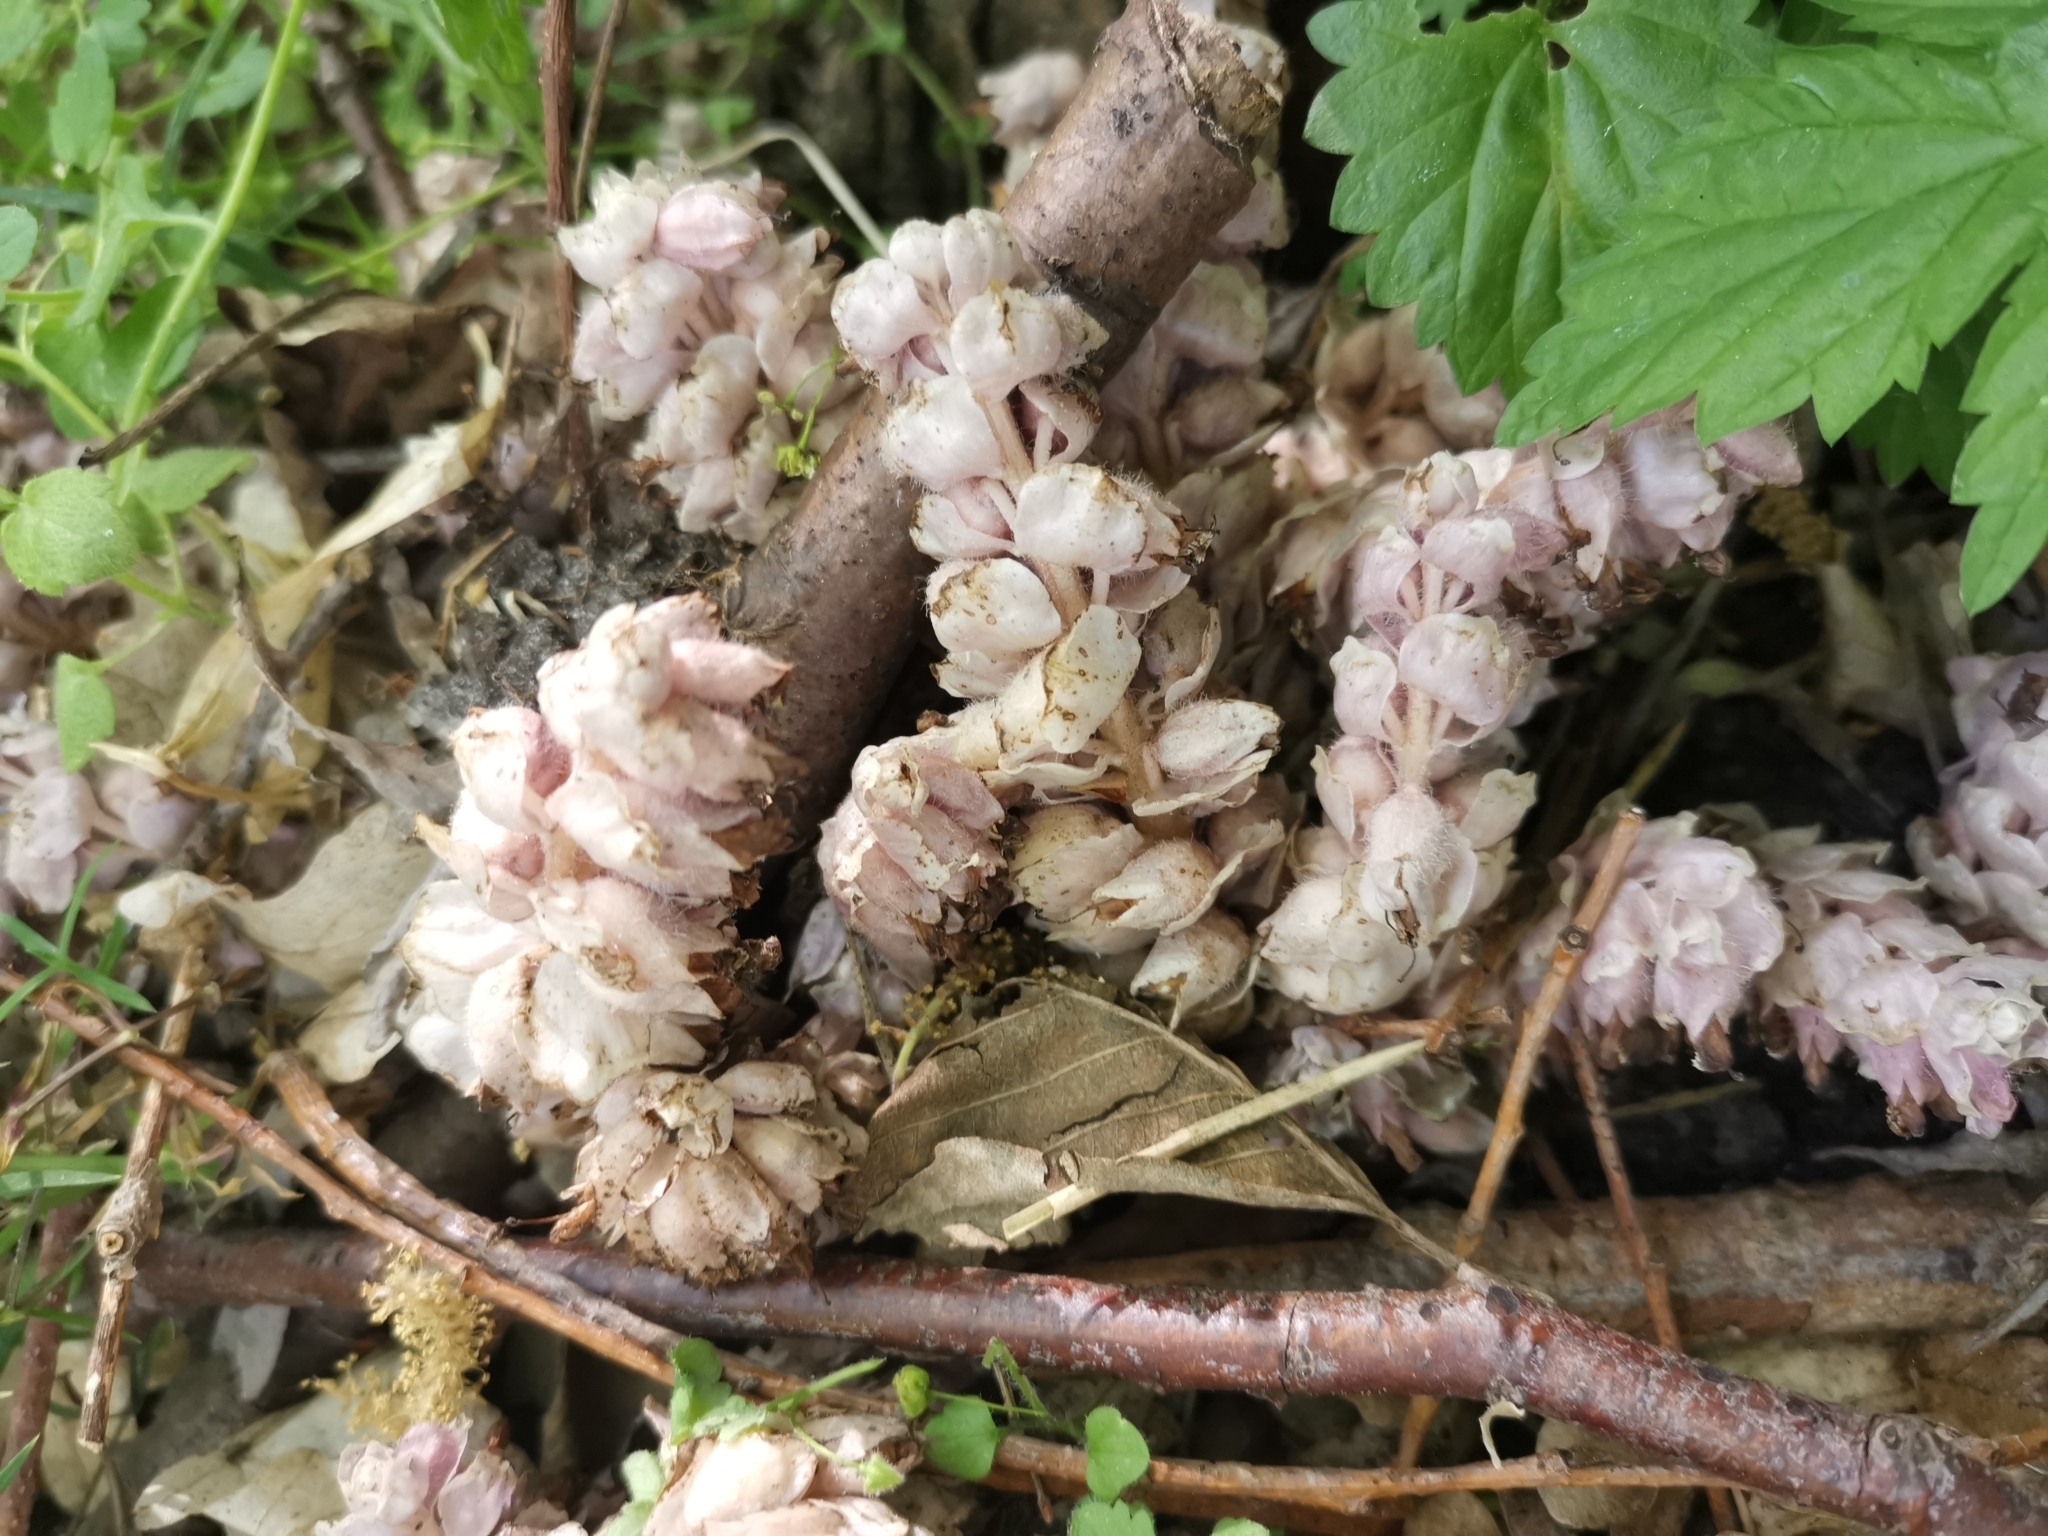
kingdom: Plantae
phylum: Tracheophyta
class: Magnoliopsida
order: Lamiales
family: Orobanchaceae
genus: Lathraea
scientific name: Lathraea squamaria
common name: Toothwort
